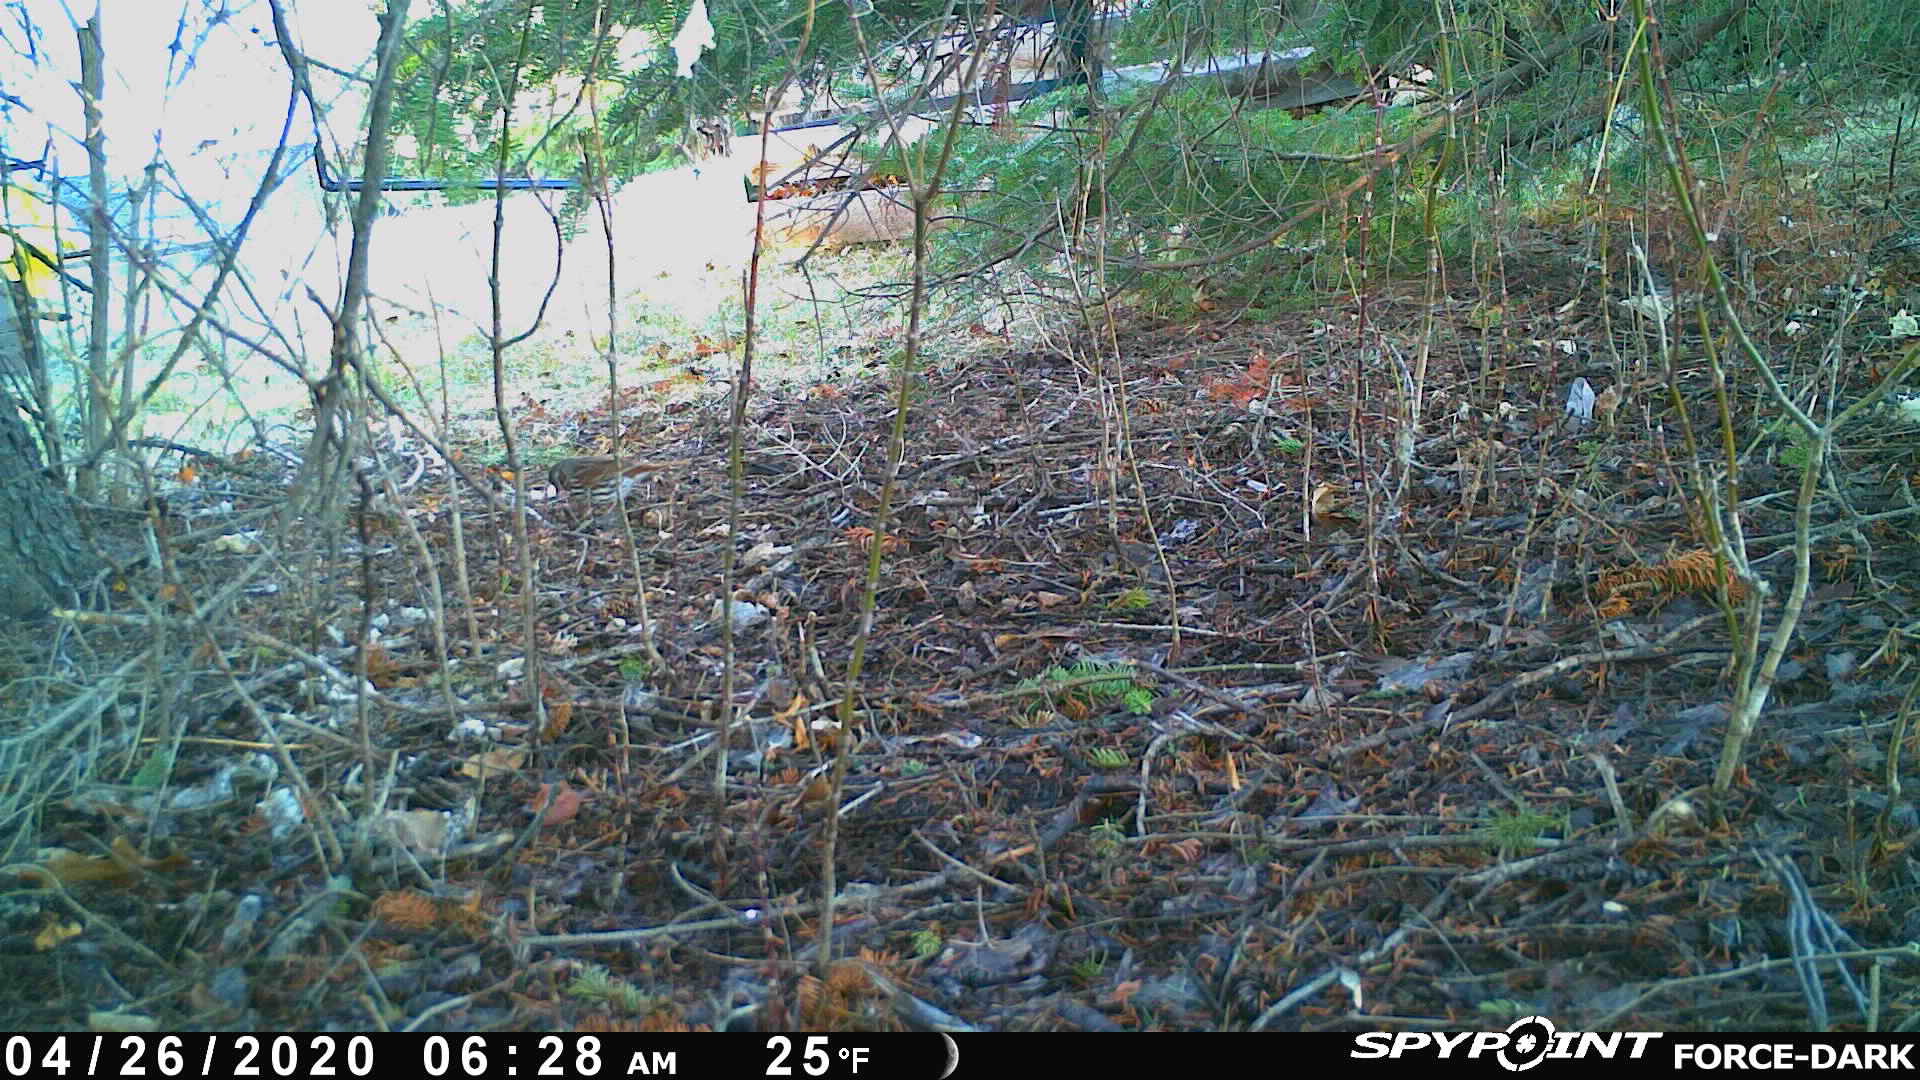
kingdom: Animalia
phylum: Chordata
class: Aves
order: Passeriformes
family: Passerellidae
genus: Passerella
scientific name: Passerella iliaca
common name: Fox sparrow
